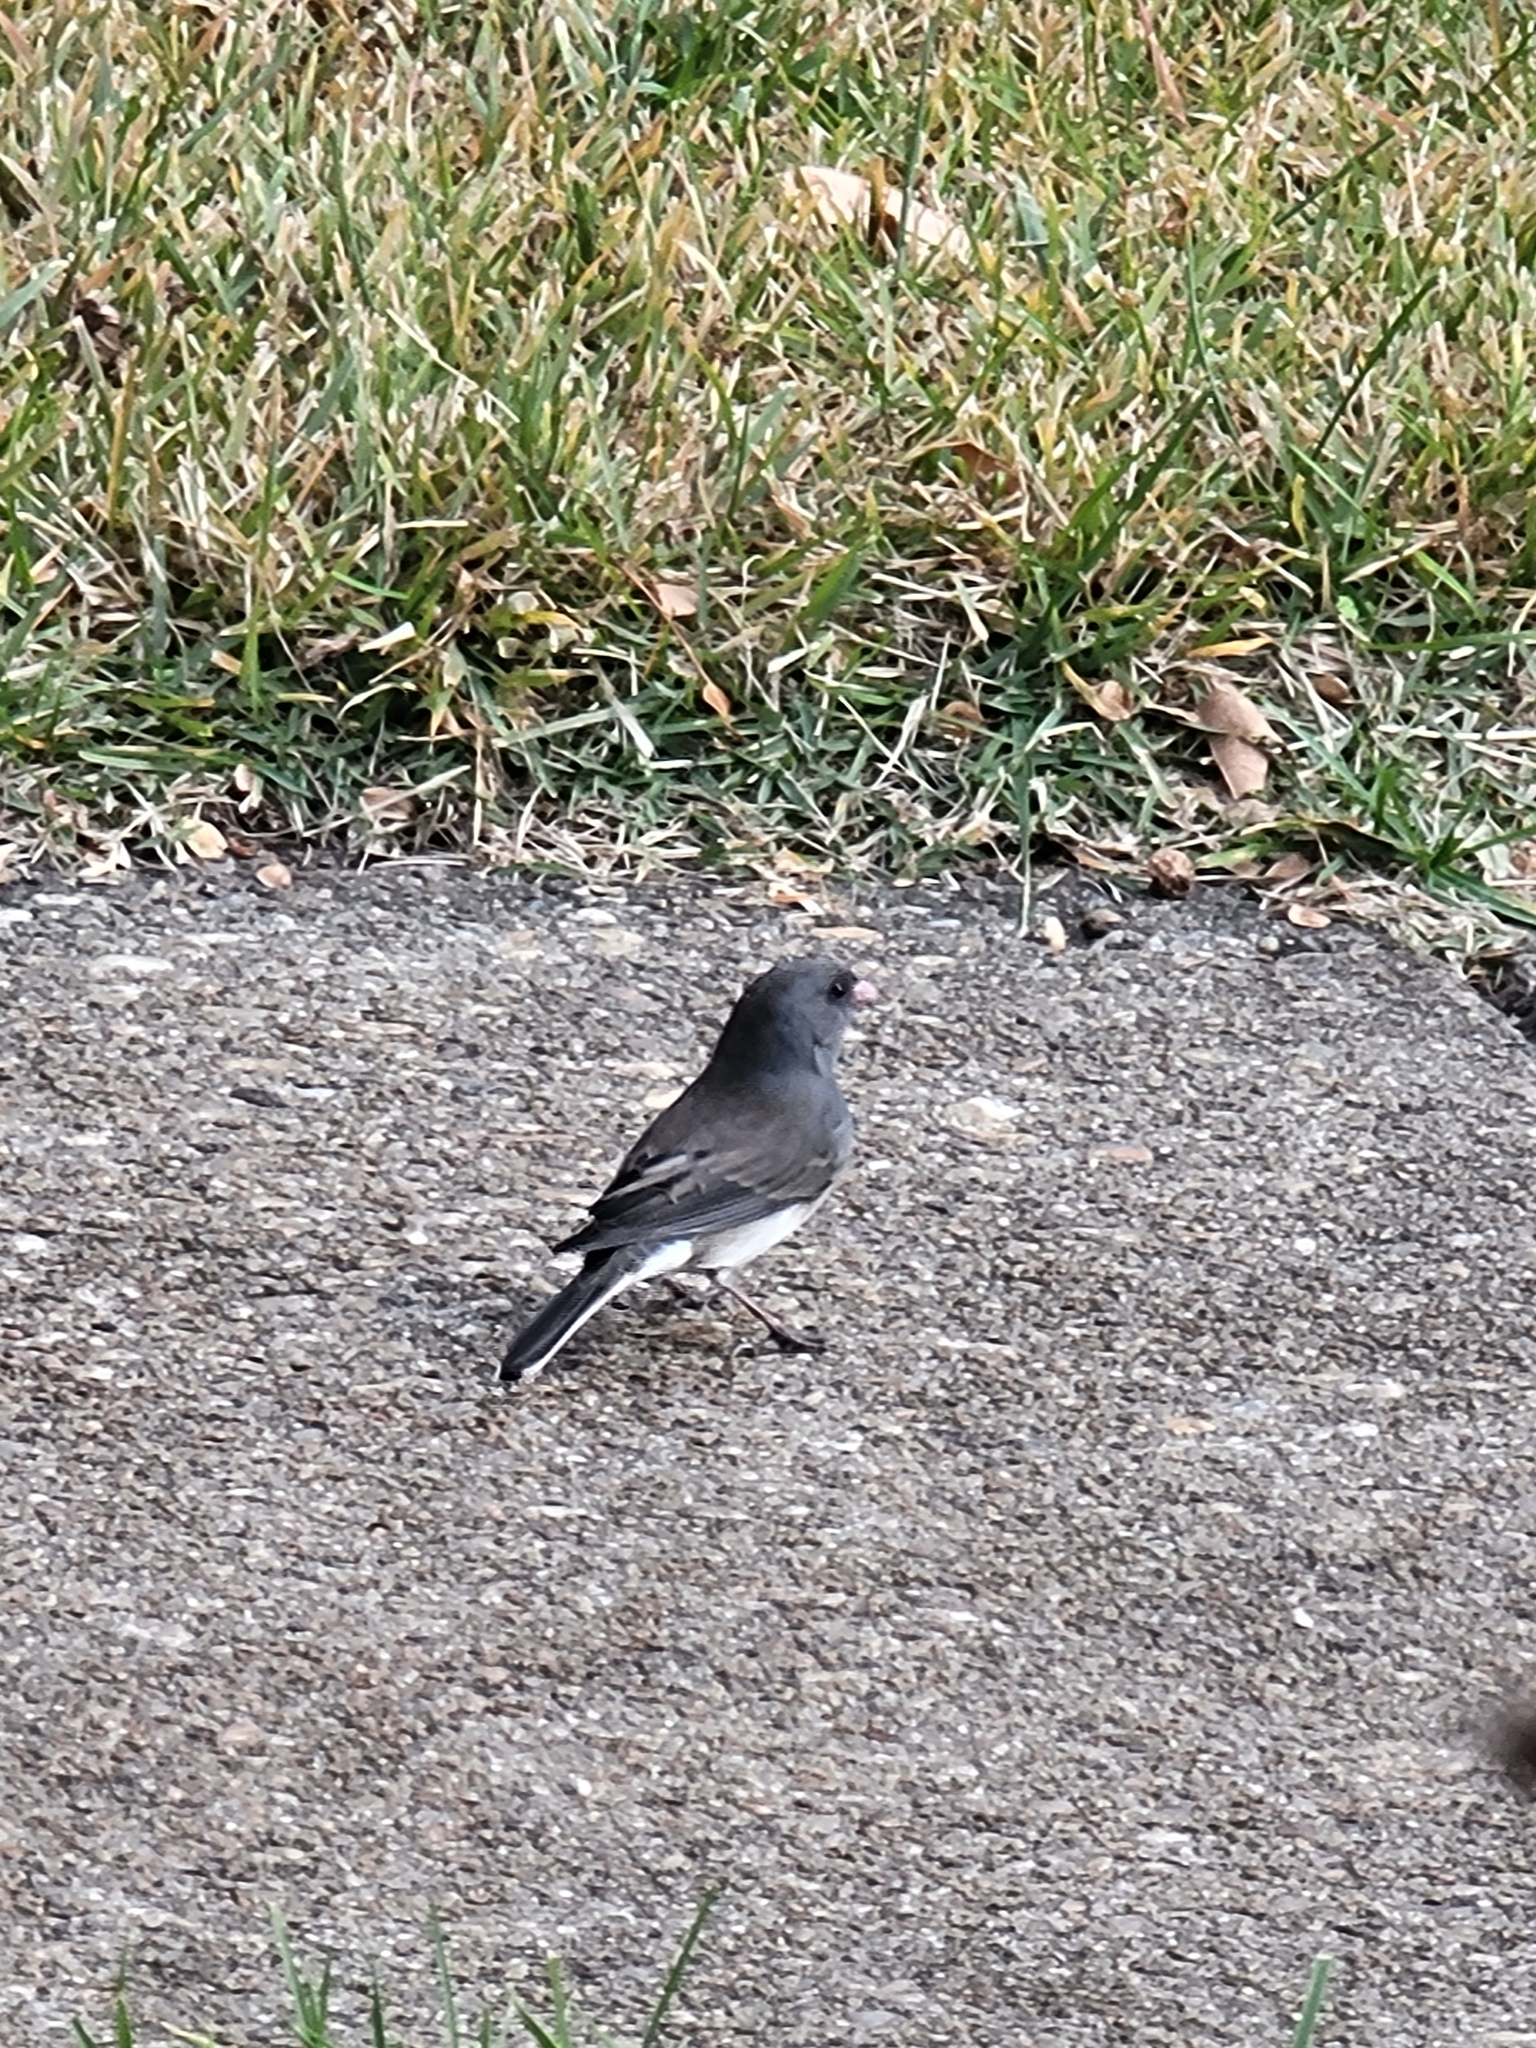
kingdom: Animalia
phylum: Chordata
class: Aves
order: Passeriformes
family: Passerellidae
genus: Junco
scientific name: Junco hyemalis
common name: Dark-eyed junco
